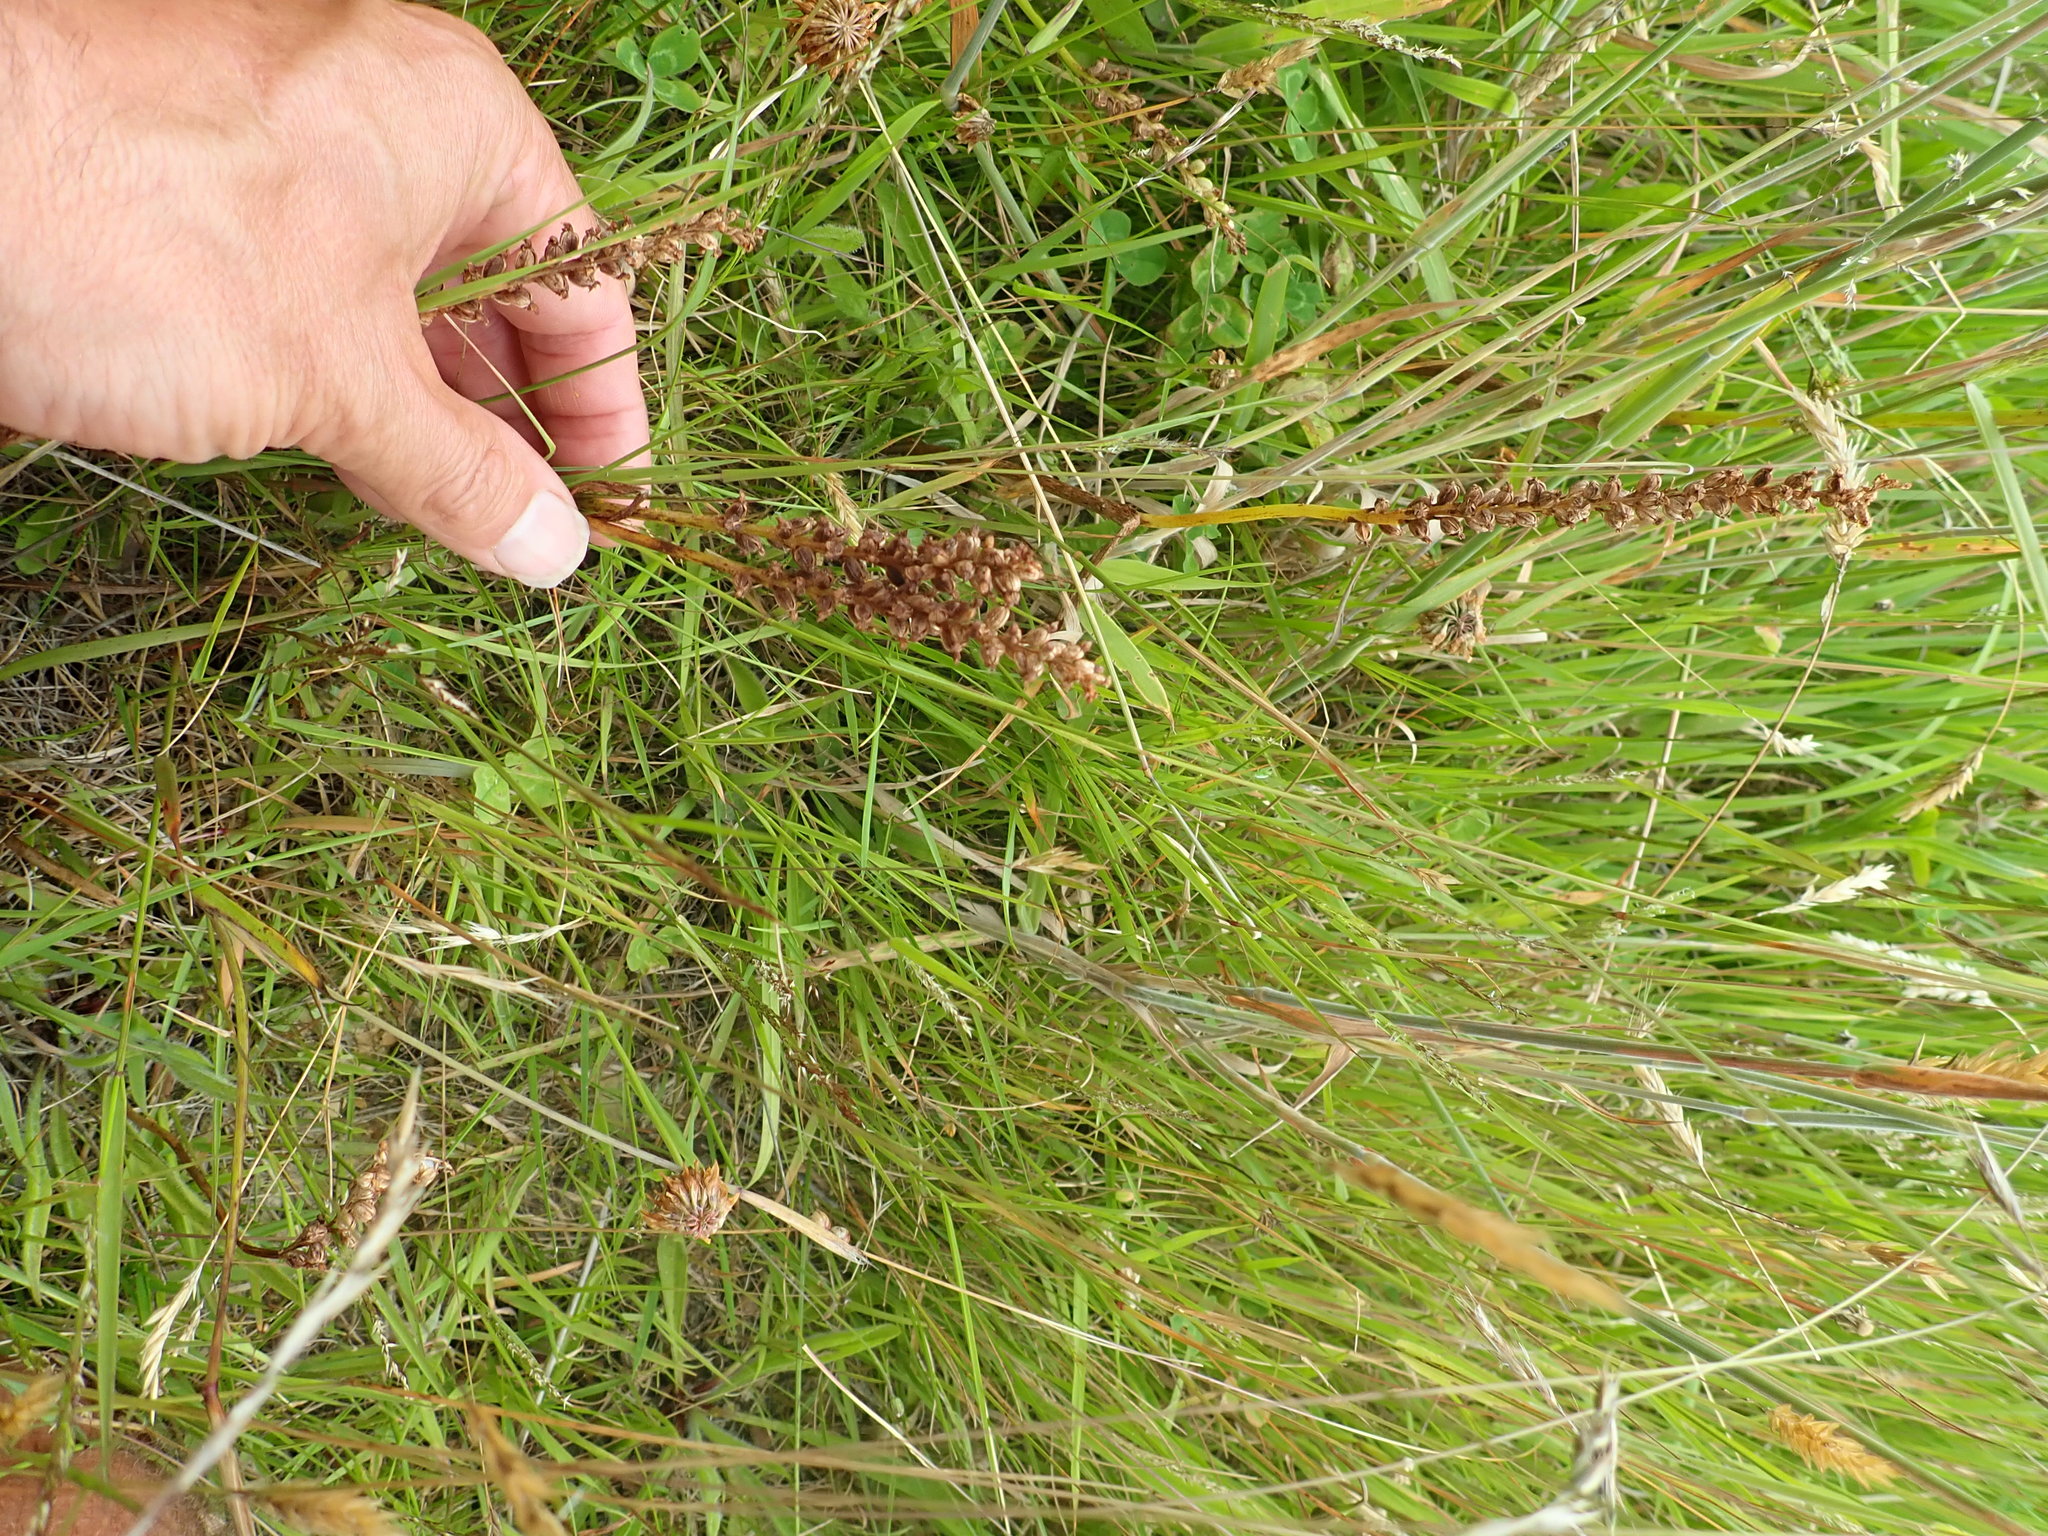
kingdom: Plantae
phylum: Tracheophyta
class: Liliopsida
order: Asparagales
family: Orchidaceae
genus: Microtis
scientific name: Microtis unifolia
